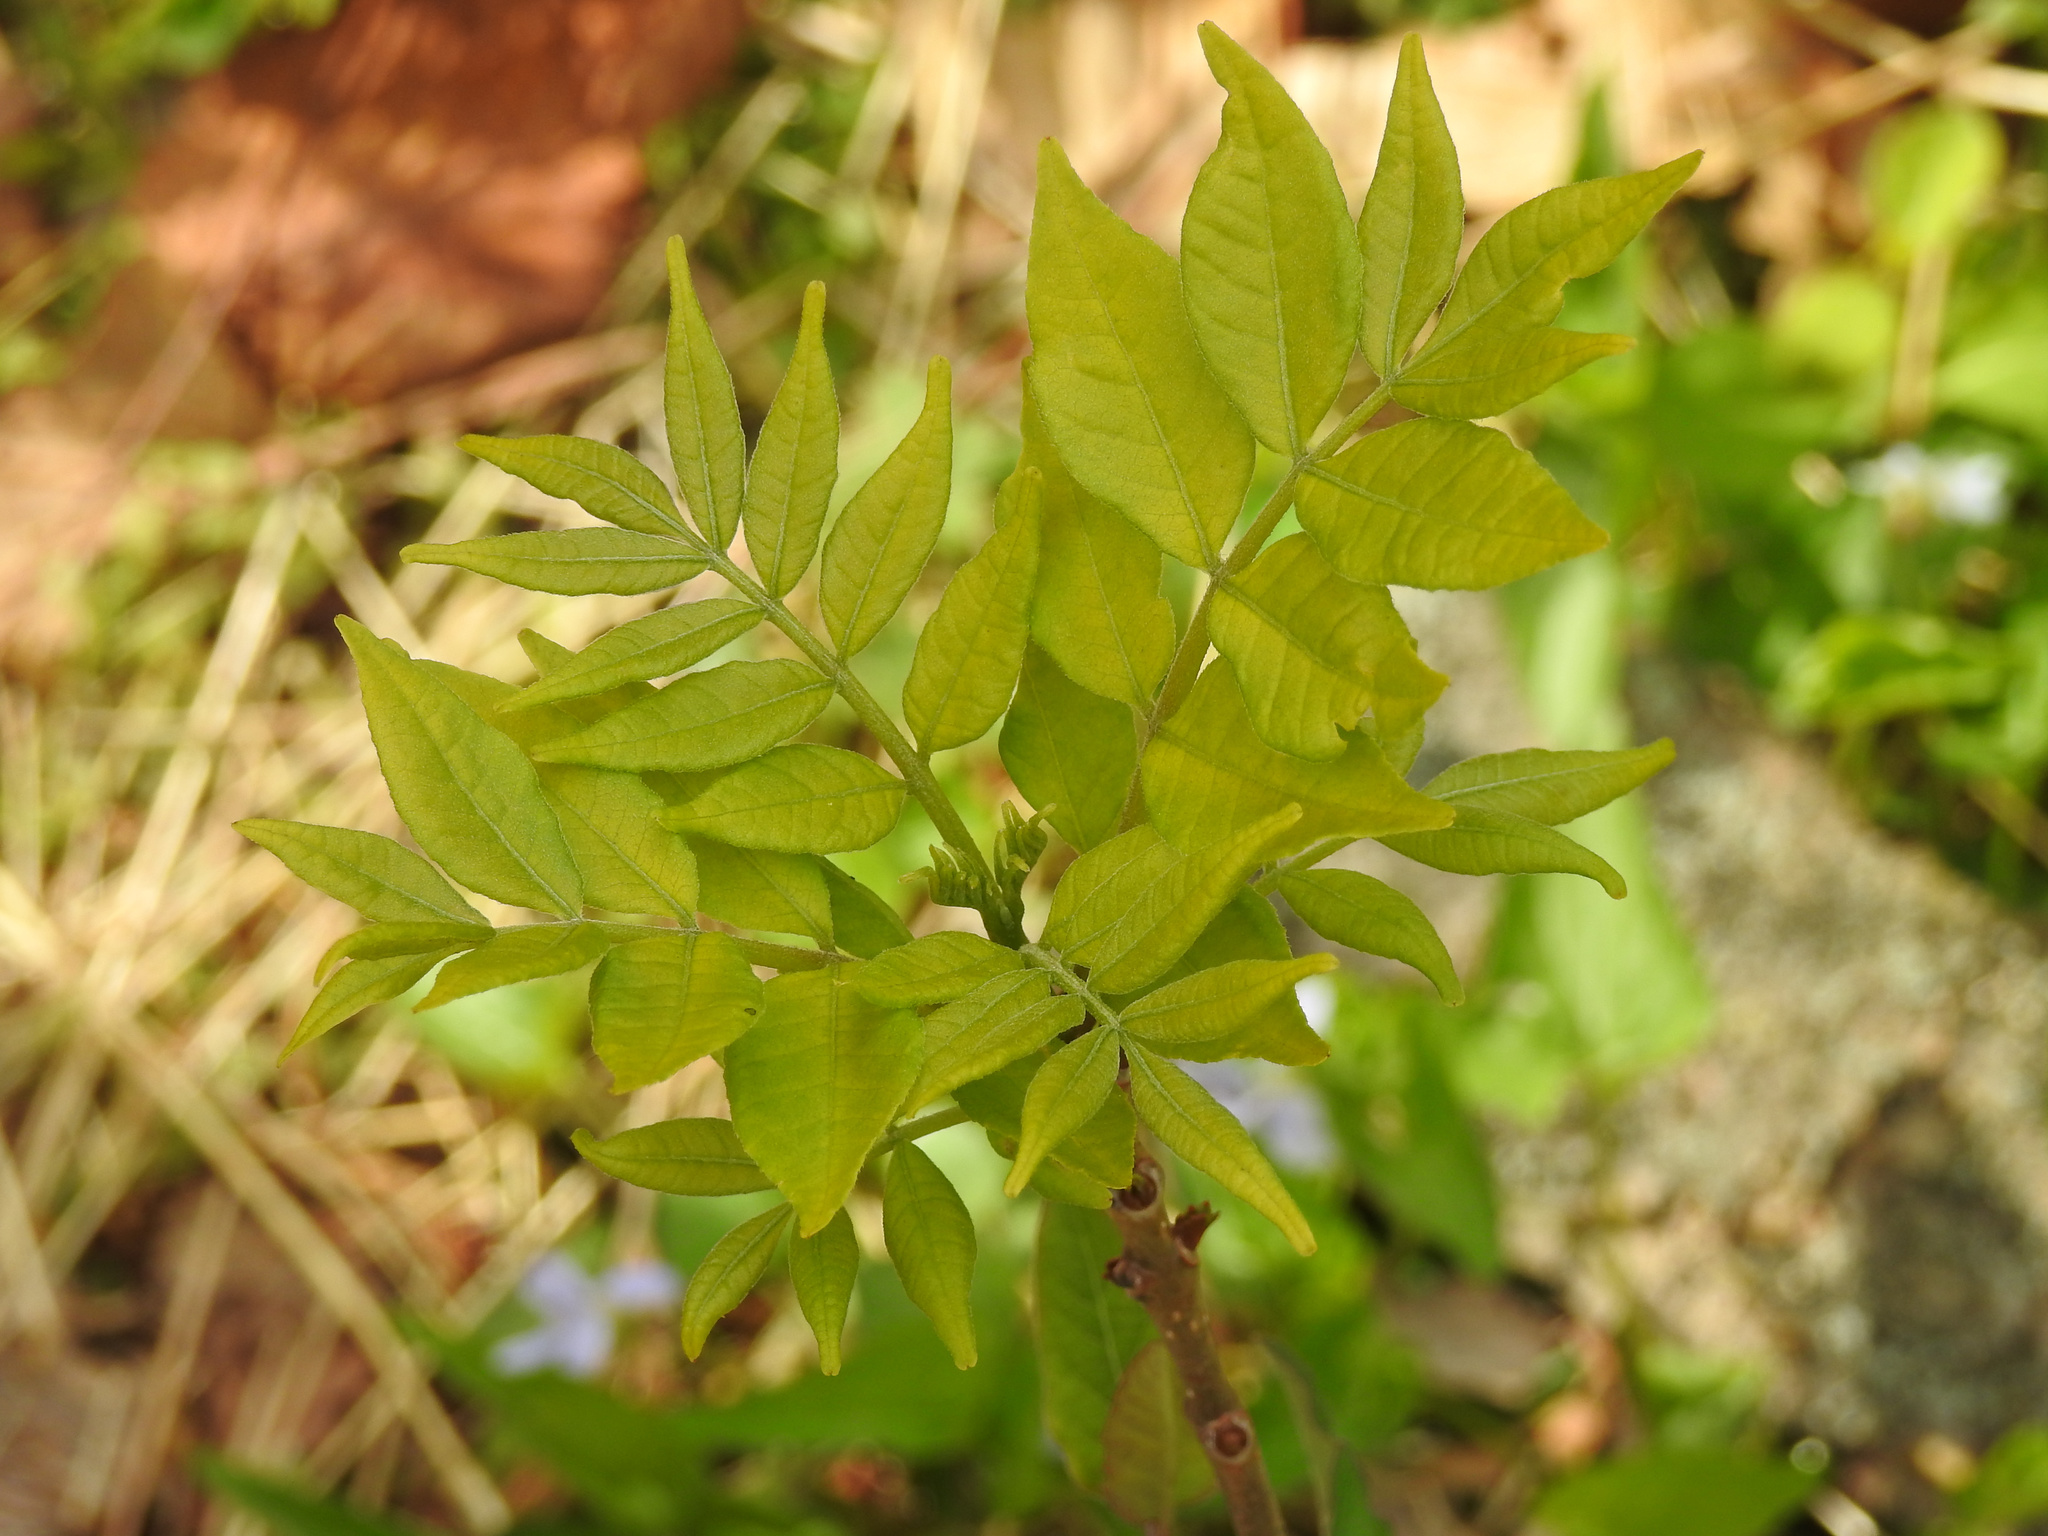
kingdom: Plantae
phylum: Tracheophyta
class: Magnoliopsida
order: Sapindales
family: Rutaceae
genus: Phellodendron
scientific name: Phellodendron amurense
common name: Amur corktree
